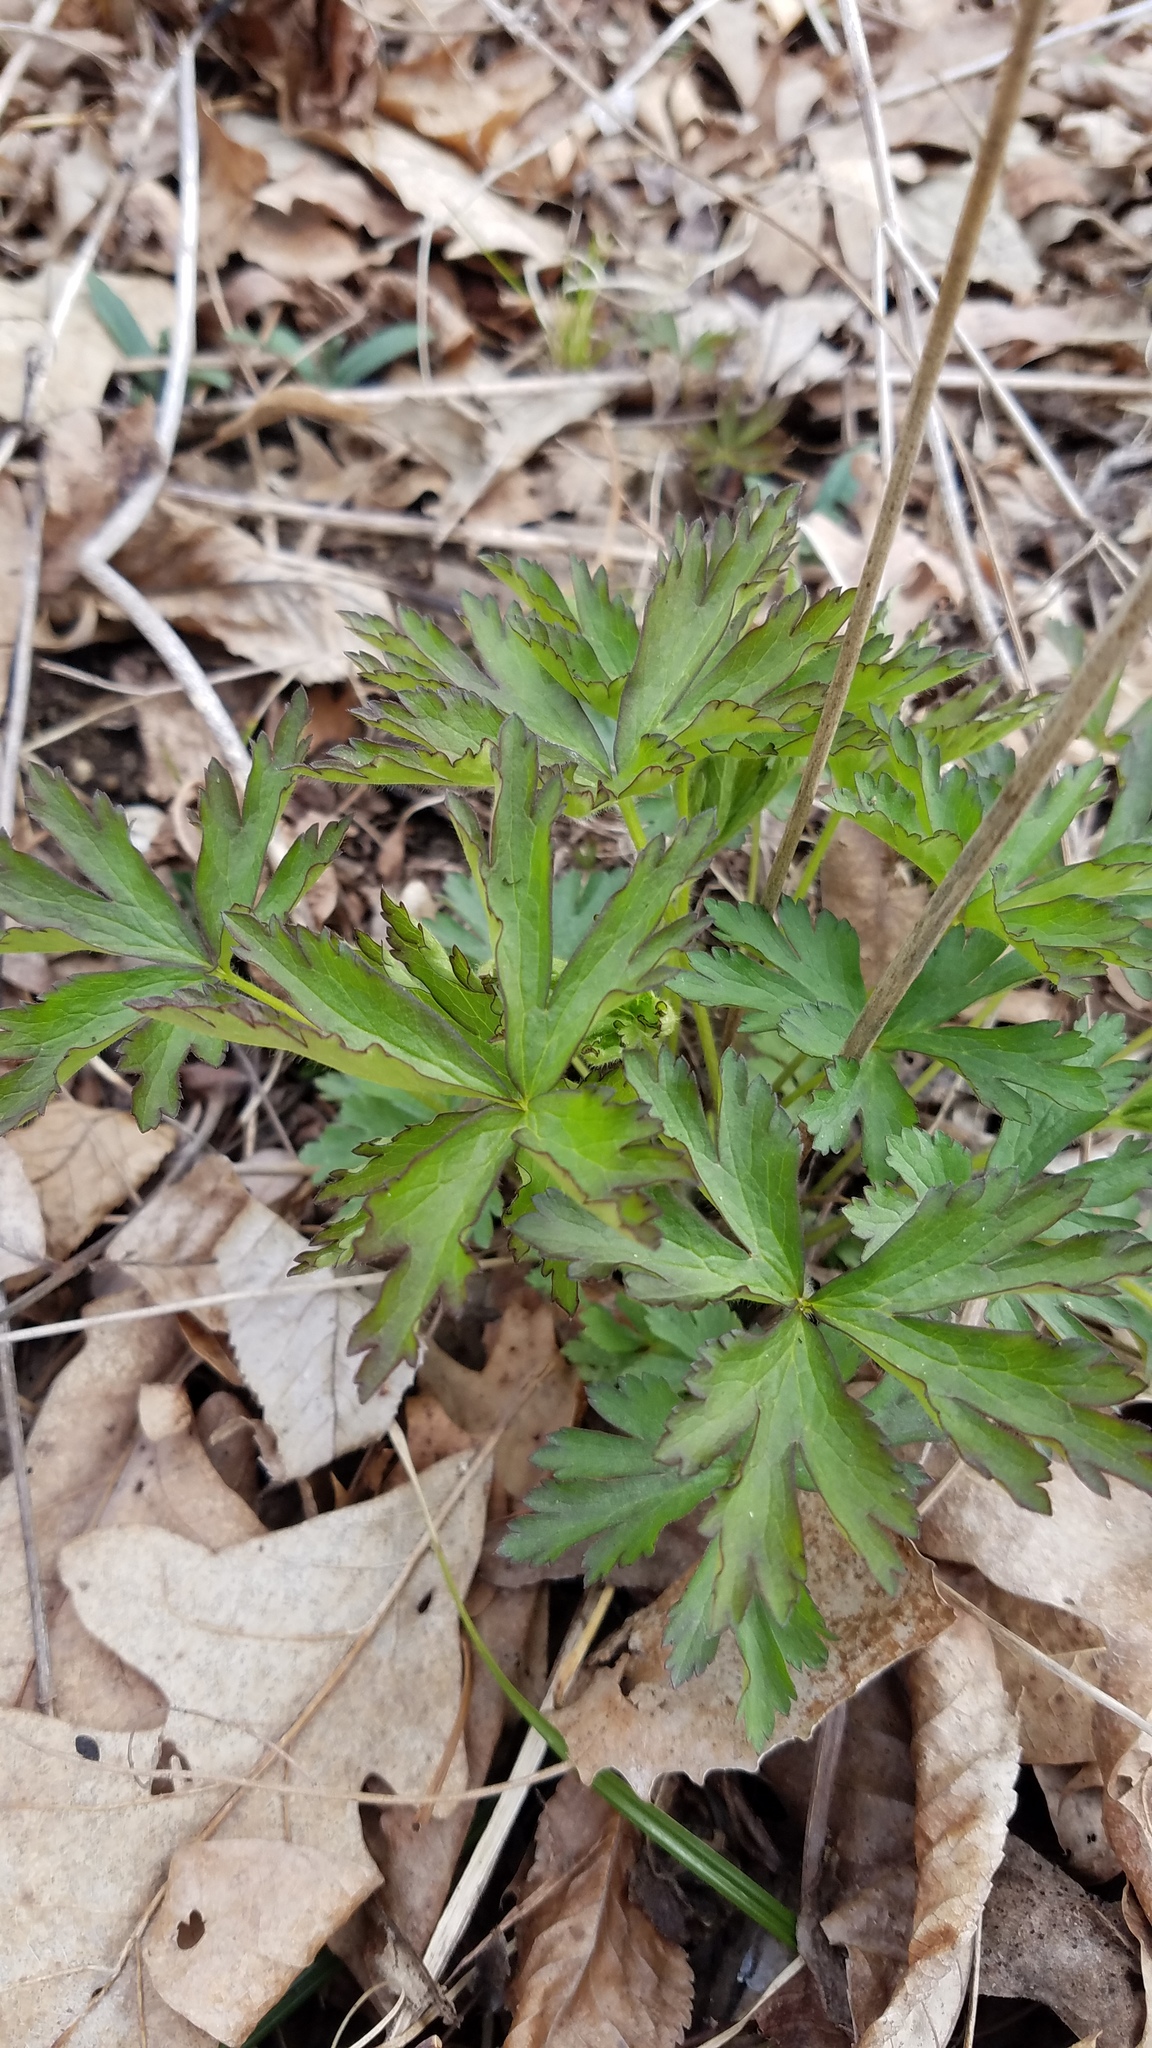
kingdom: Plantae
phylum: Tracheophyta
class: Magnoliopsida
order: Ranunculales
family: Ranunculaceae
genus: Anemone
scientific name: Anemone cylindrica
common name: Candle anemone
